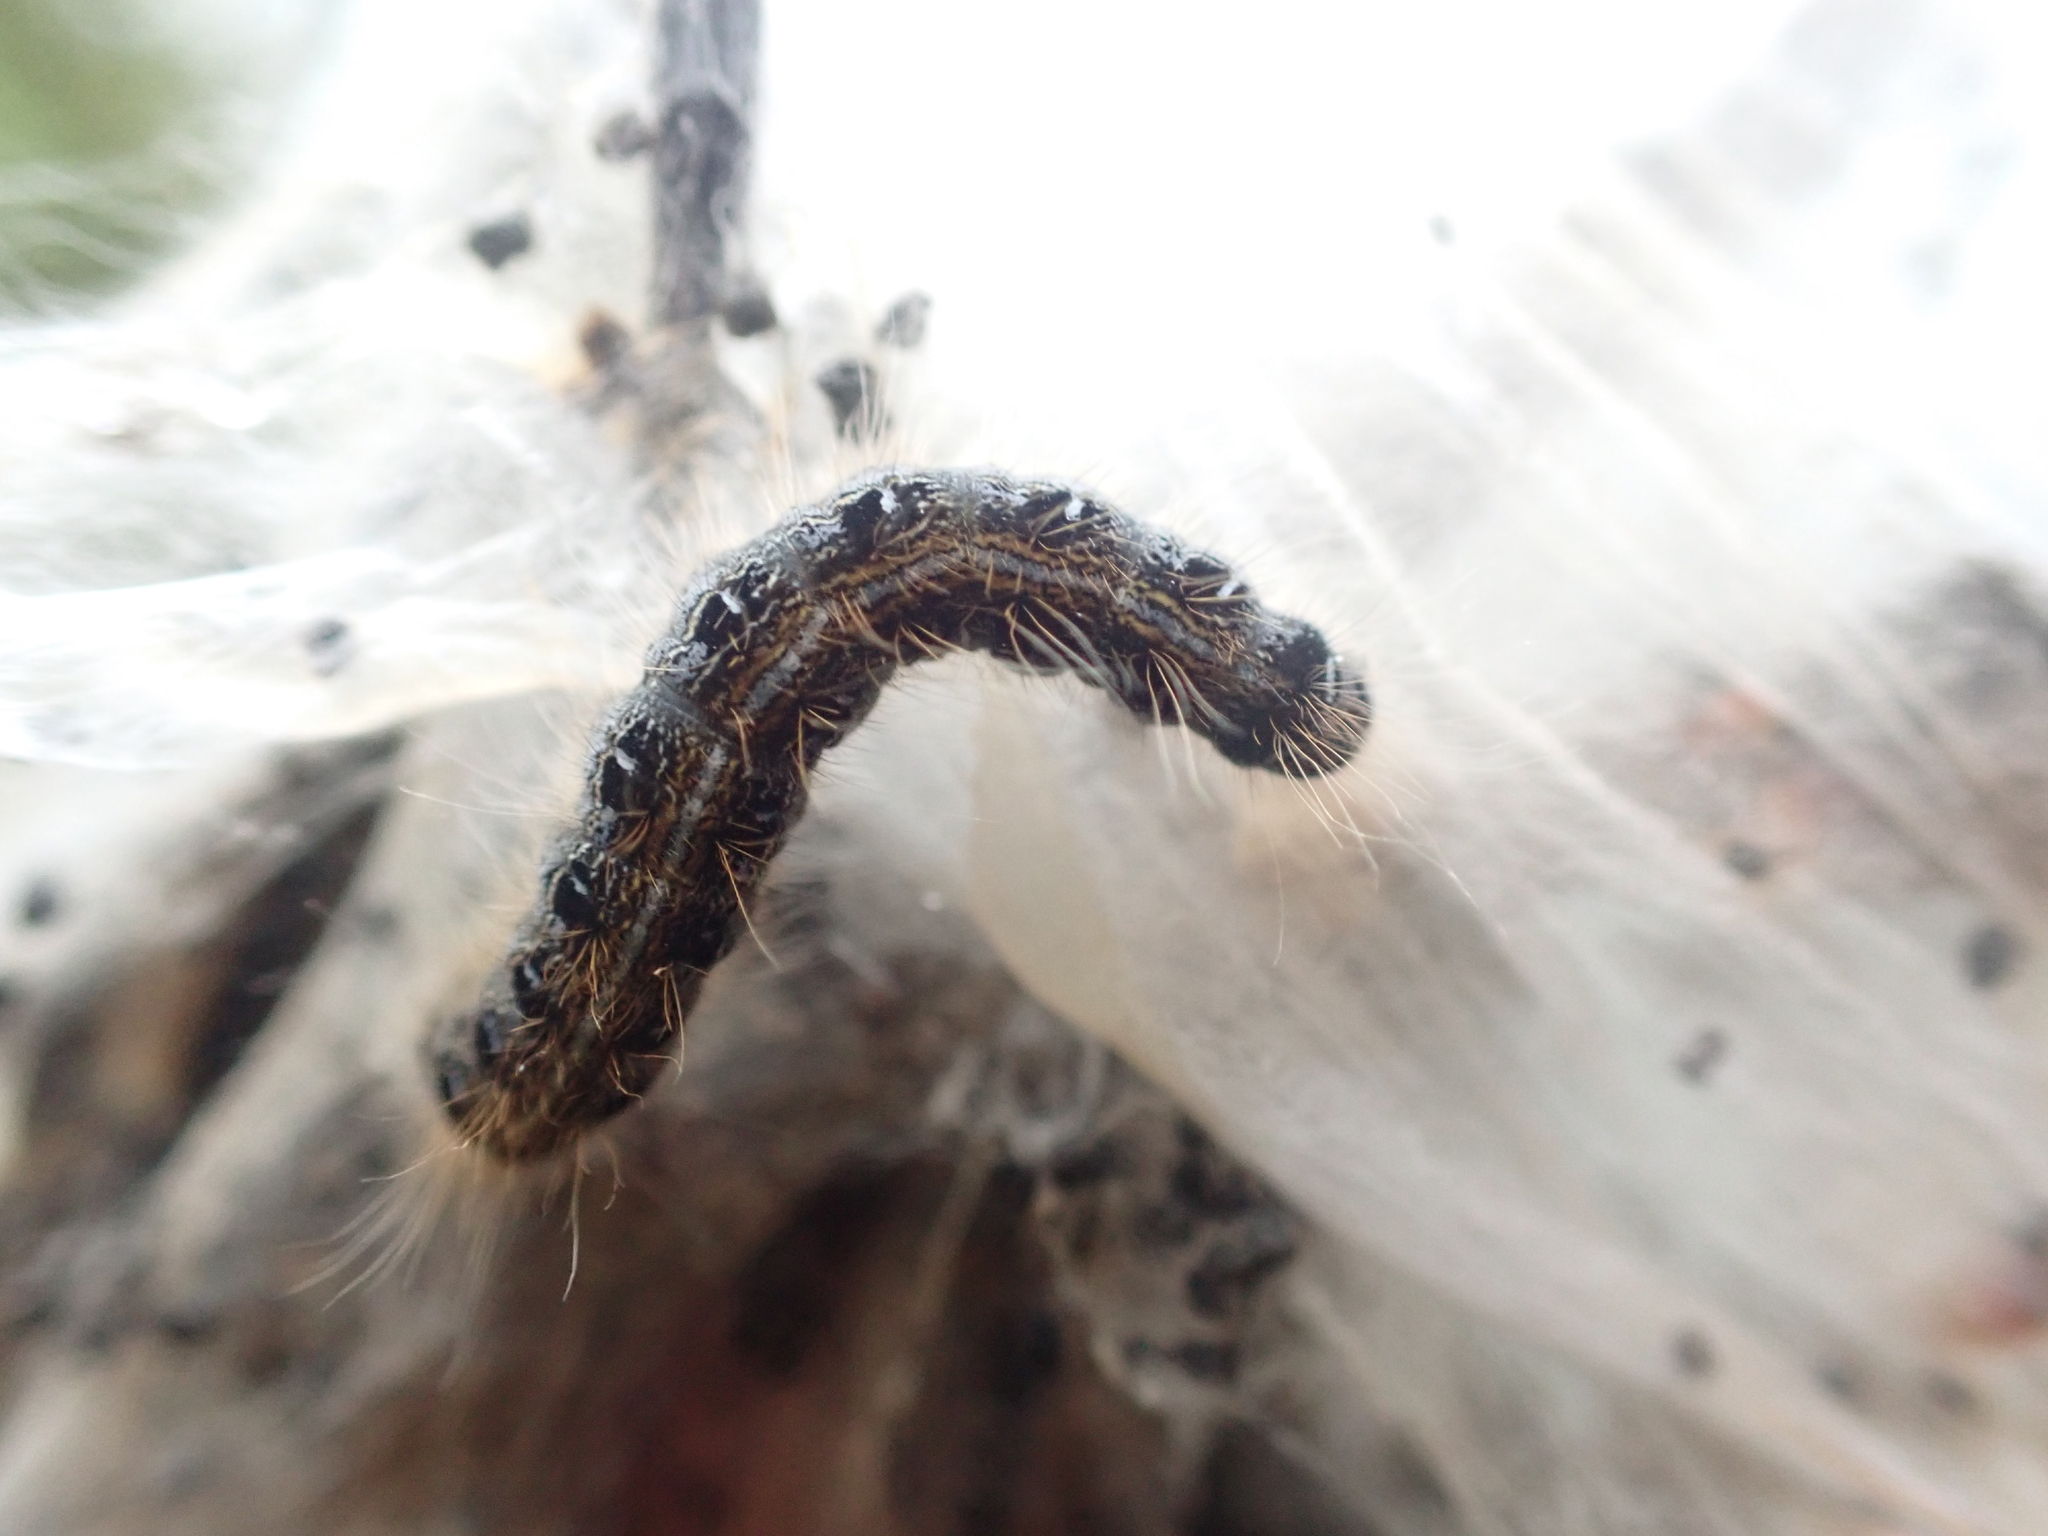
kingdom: Animalia
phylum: Arthropoda
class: Insecta
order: Lepidoptera
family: Lasiocampidae
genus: Malacosoma
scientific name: Malacosoma americana
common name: Eastern tent caterpillar moth
